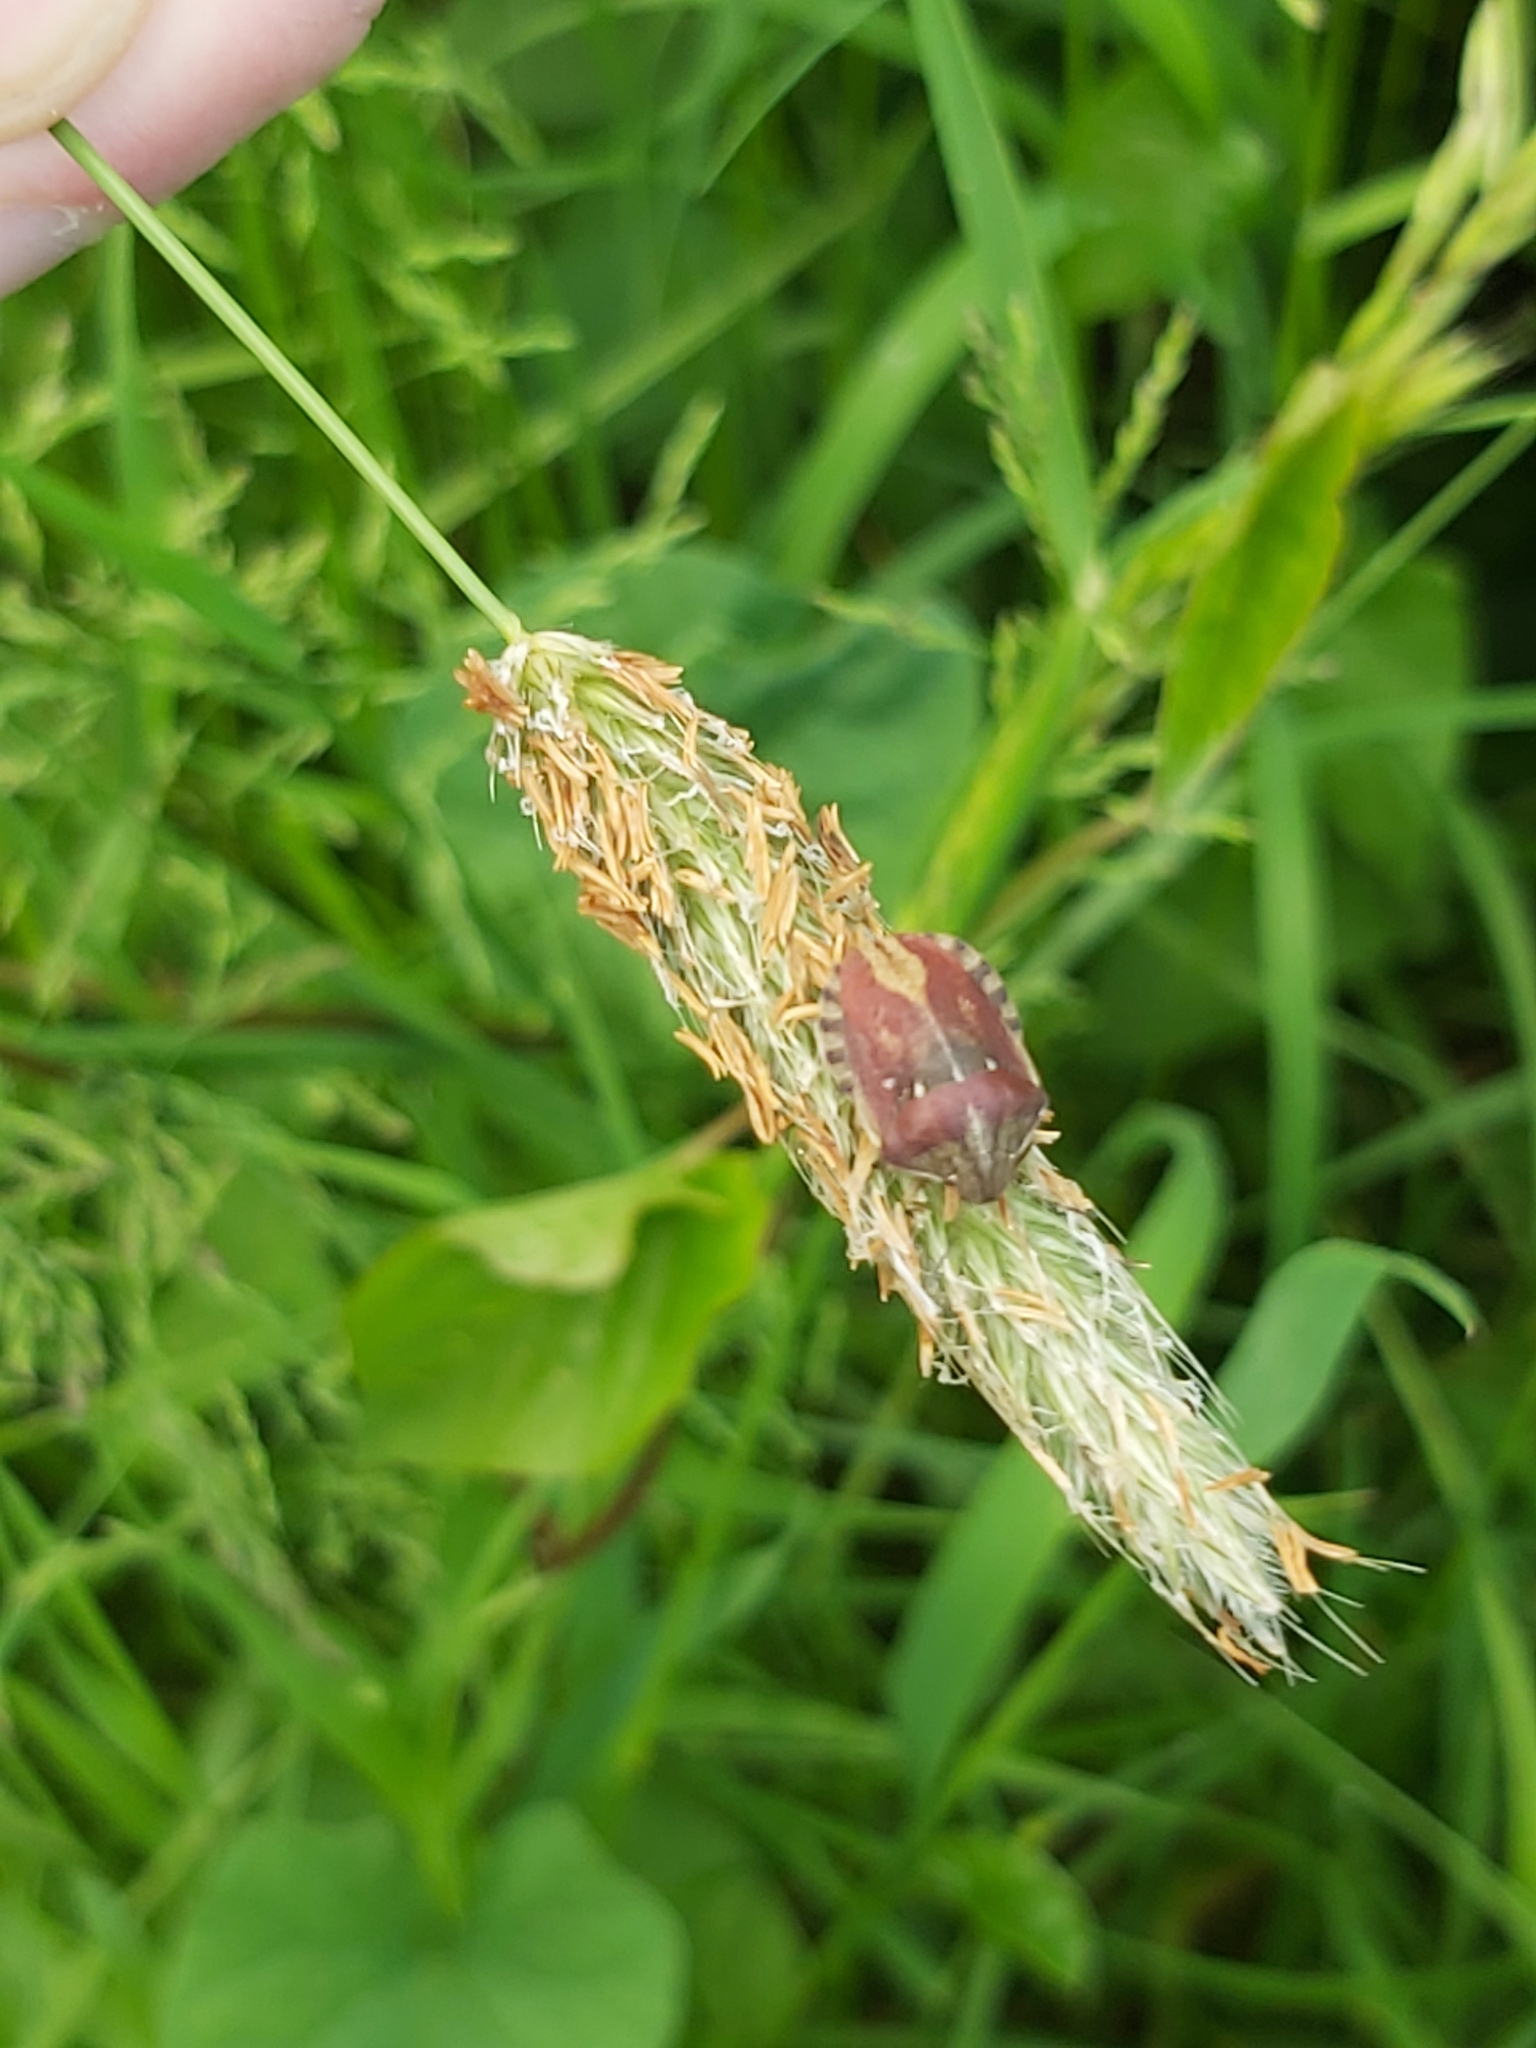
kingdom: Animalia
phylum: Arthropoda
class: Insecta
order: Hemiptera
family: Scutelleridae
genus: Eurygaster
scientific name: Eurygaster testudinaria
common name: Tortoise bug
